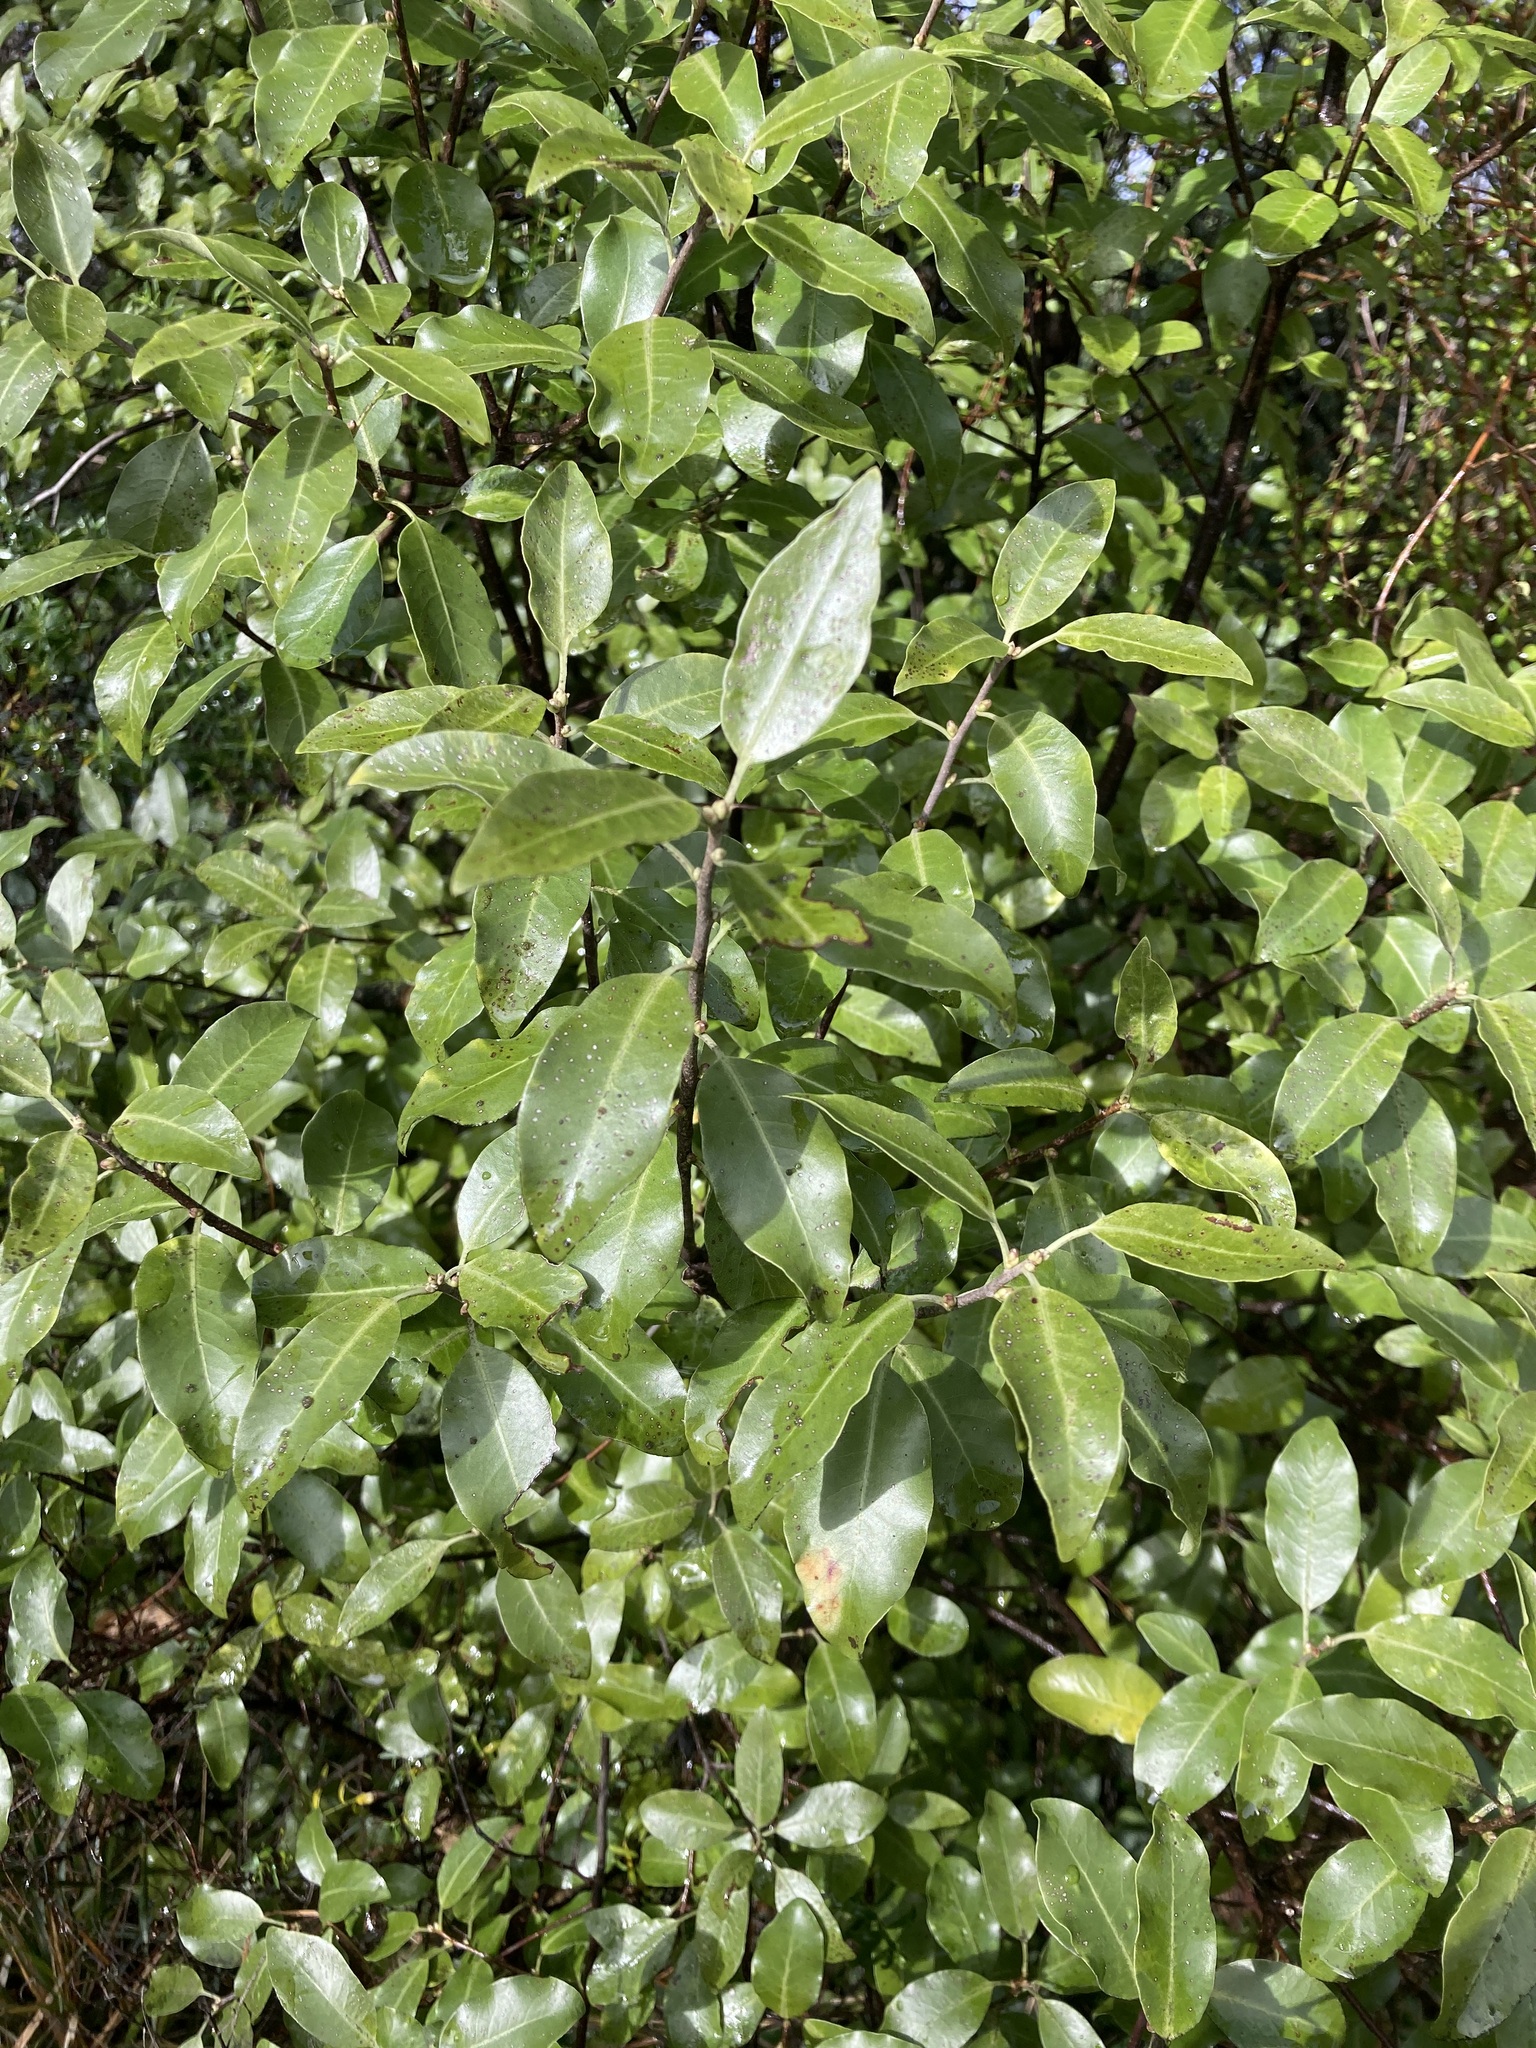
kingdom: Plantae
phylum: Tracheophyta
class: Magnoliopsida
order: Apiales
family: Pittosporaceae
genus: Pittosporum
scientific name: Pittosporum tenuifolium
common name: Kohuhu
